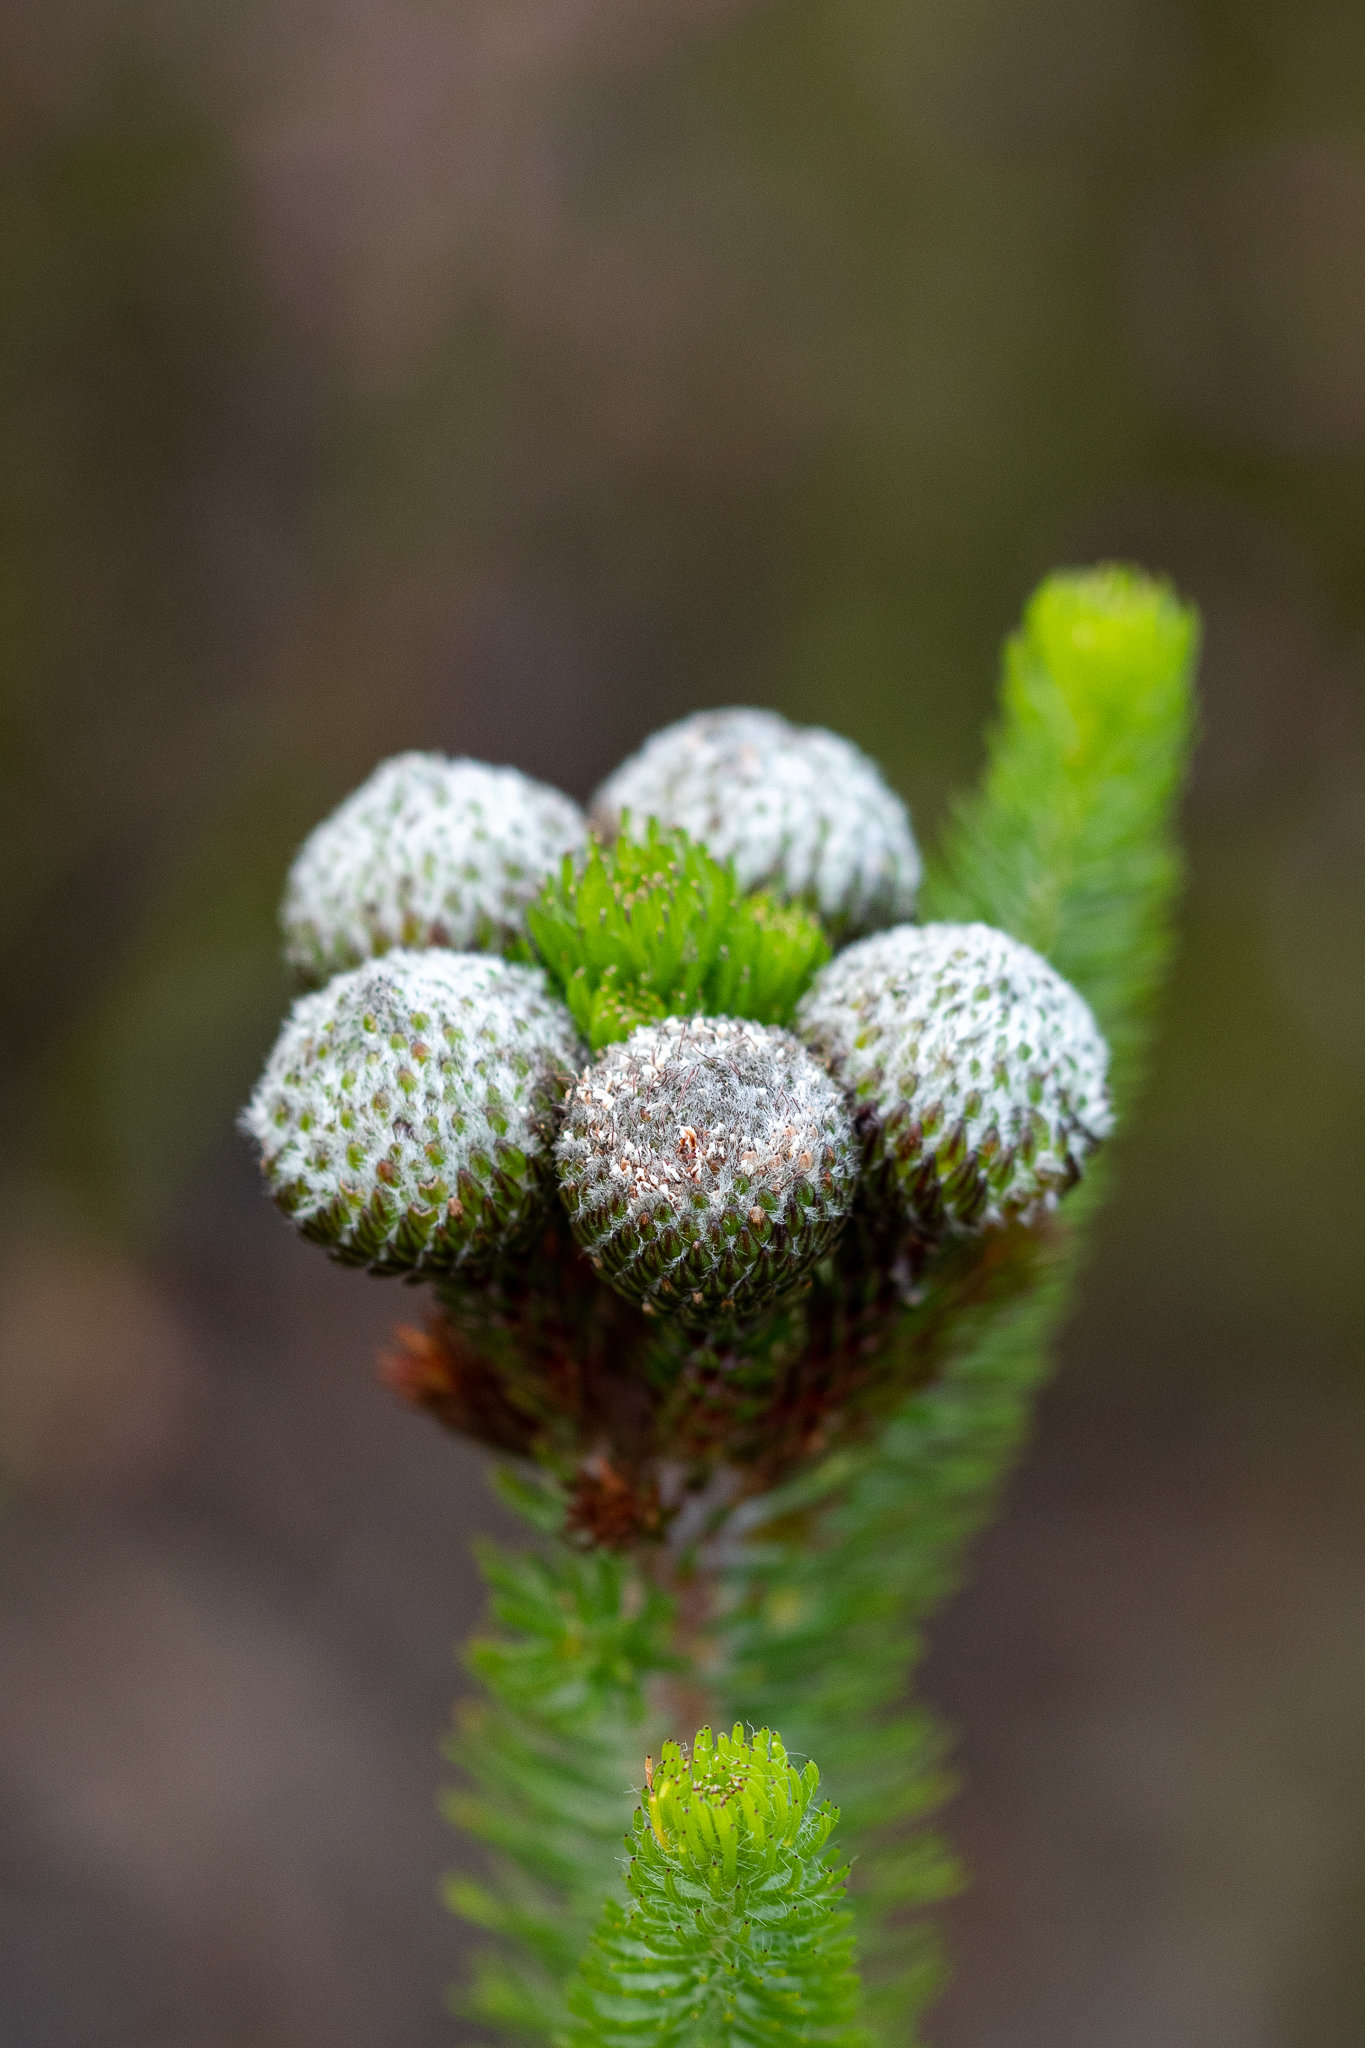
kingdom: Plantae
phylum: Tracheophyta
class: Magnoliopsida
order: Bruniales
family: Bruniaceae
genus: Berzelia
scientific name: Berzelia albiflora
